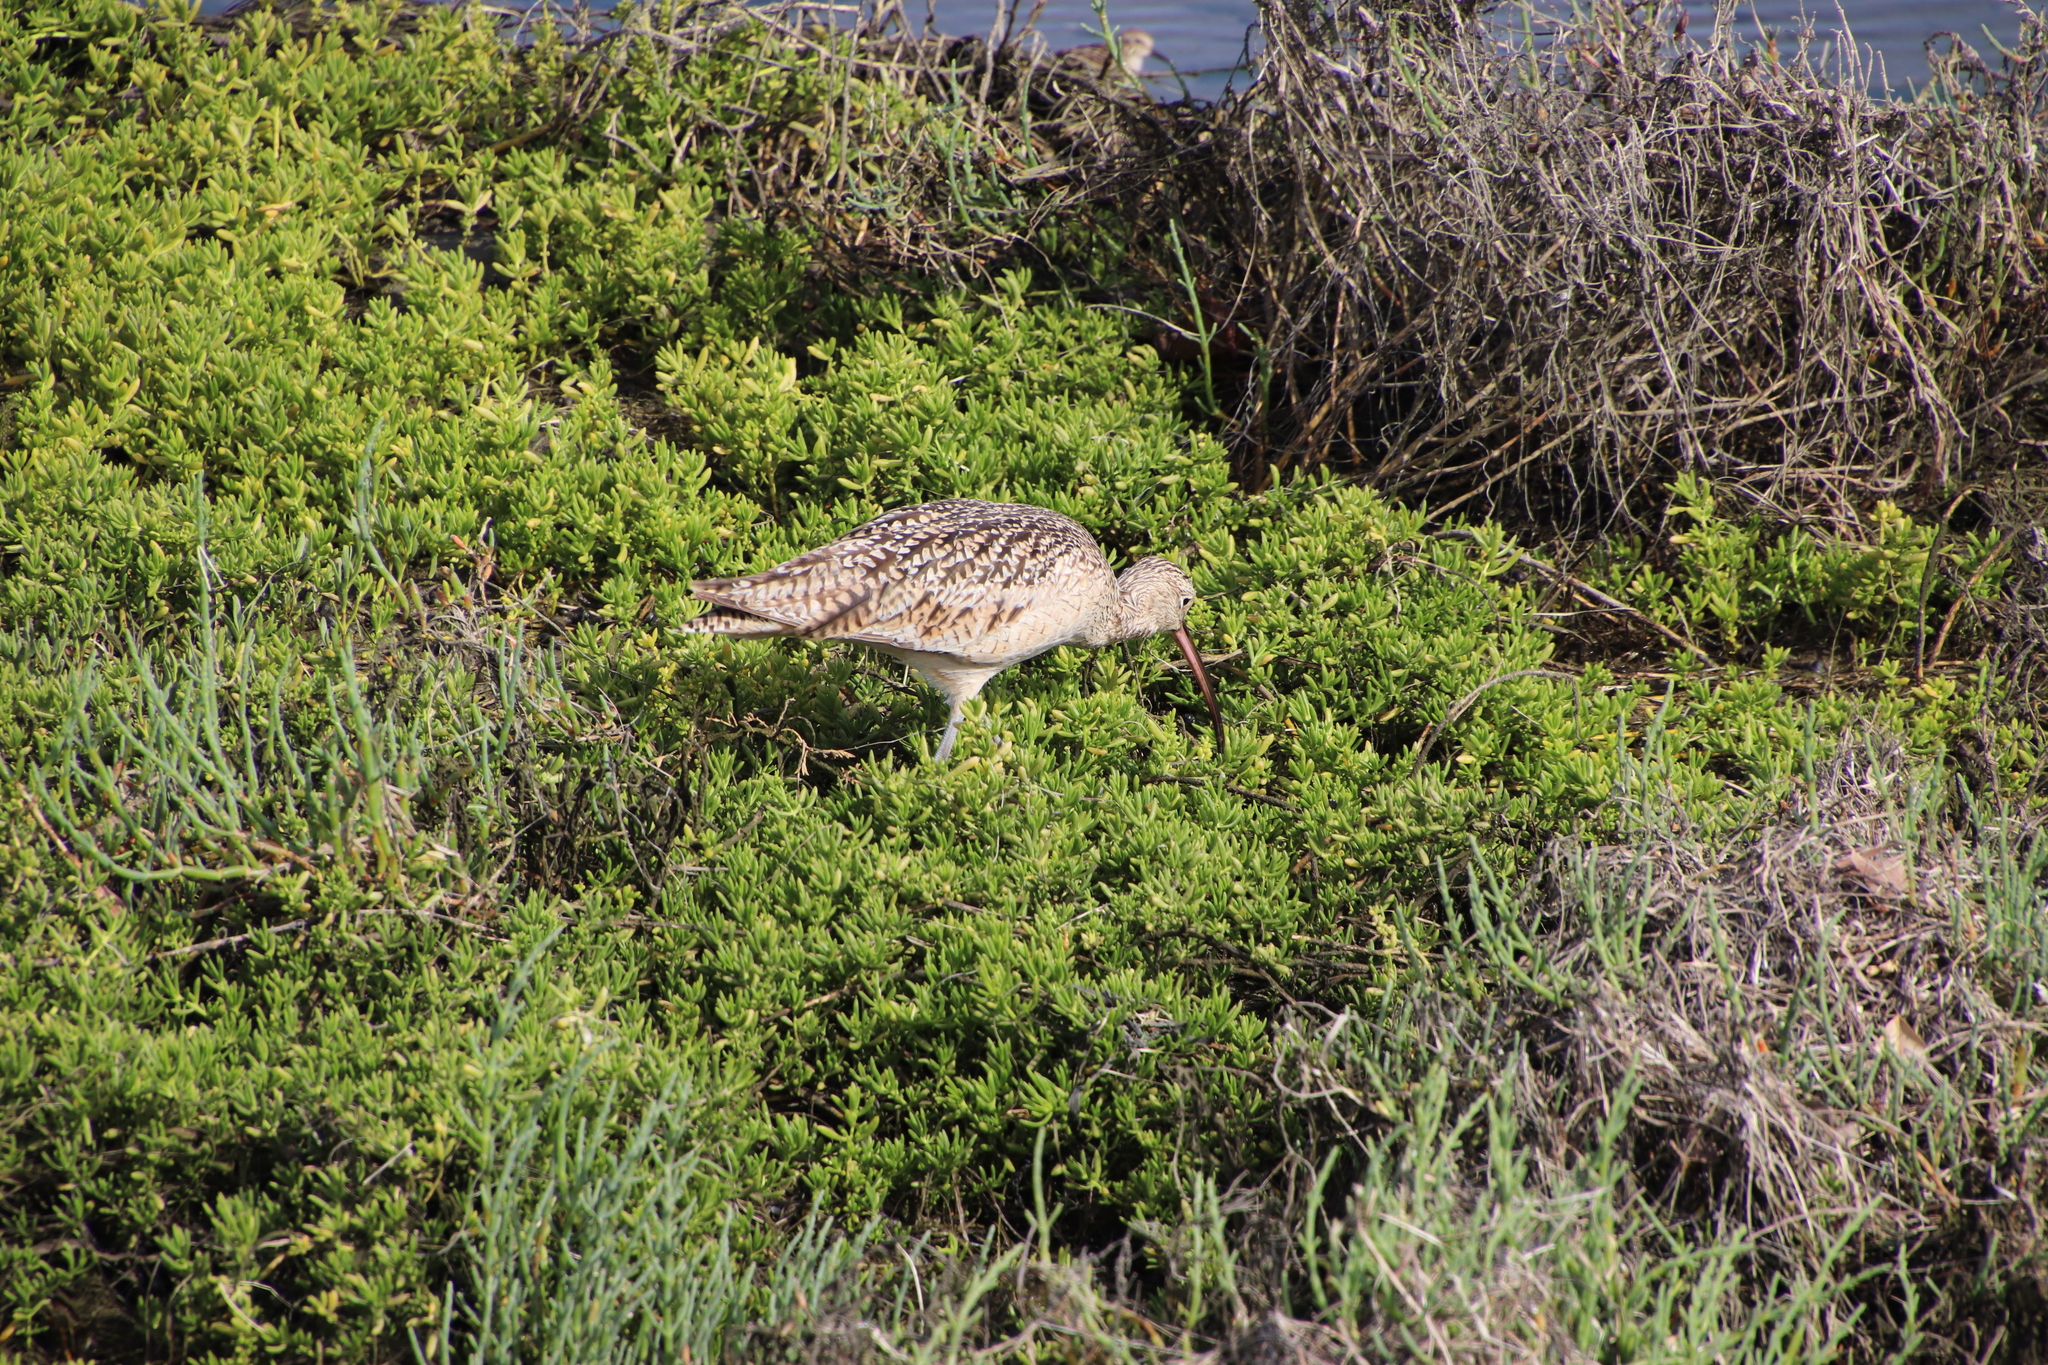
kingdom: Animalia
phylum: Chordata
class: Aves
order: Charadriiformes
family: Scolopacidae
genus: Numenius
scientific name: Numenius americanus
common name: Long-billed curlew
